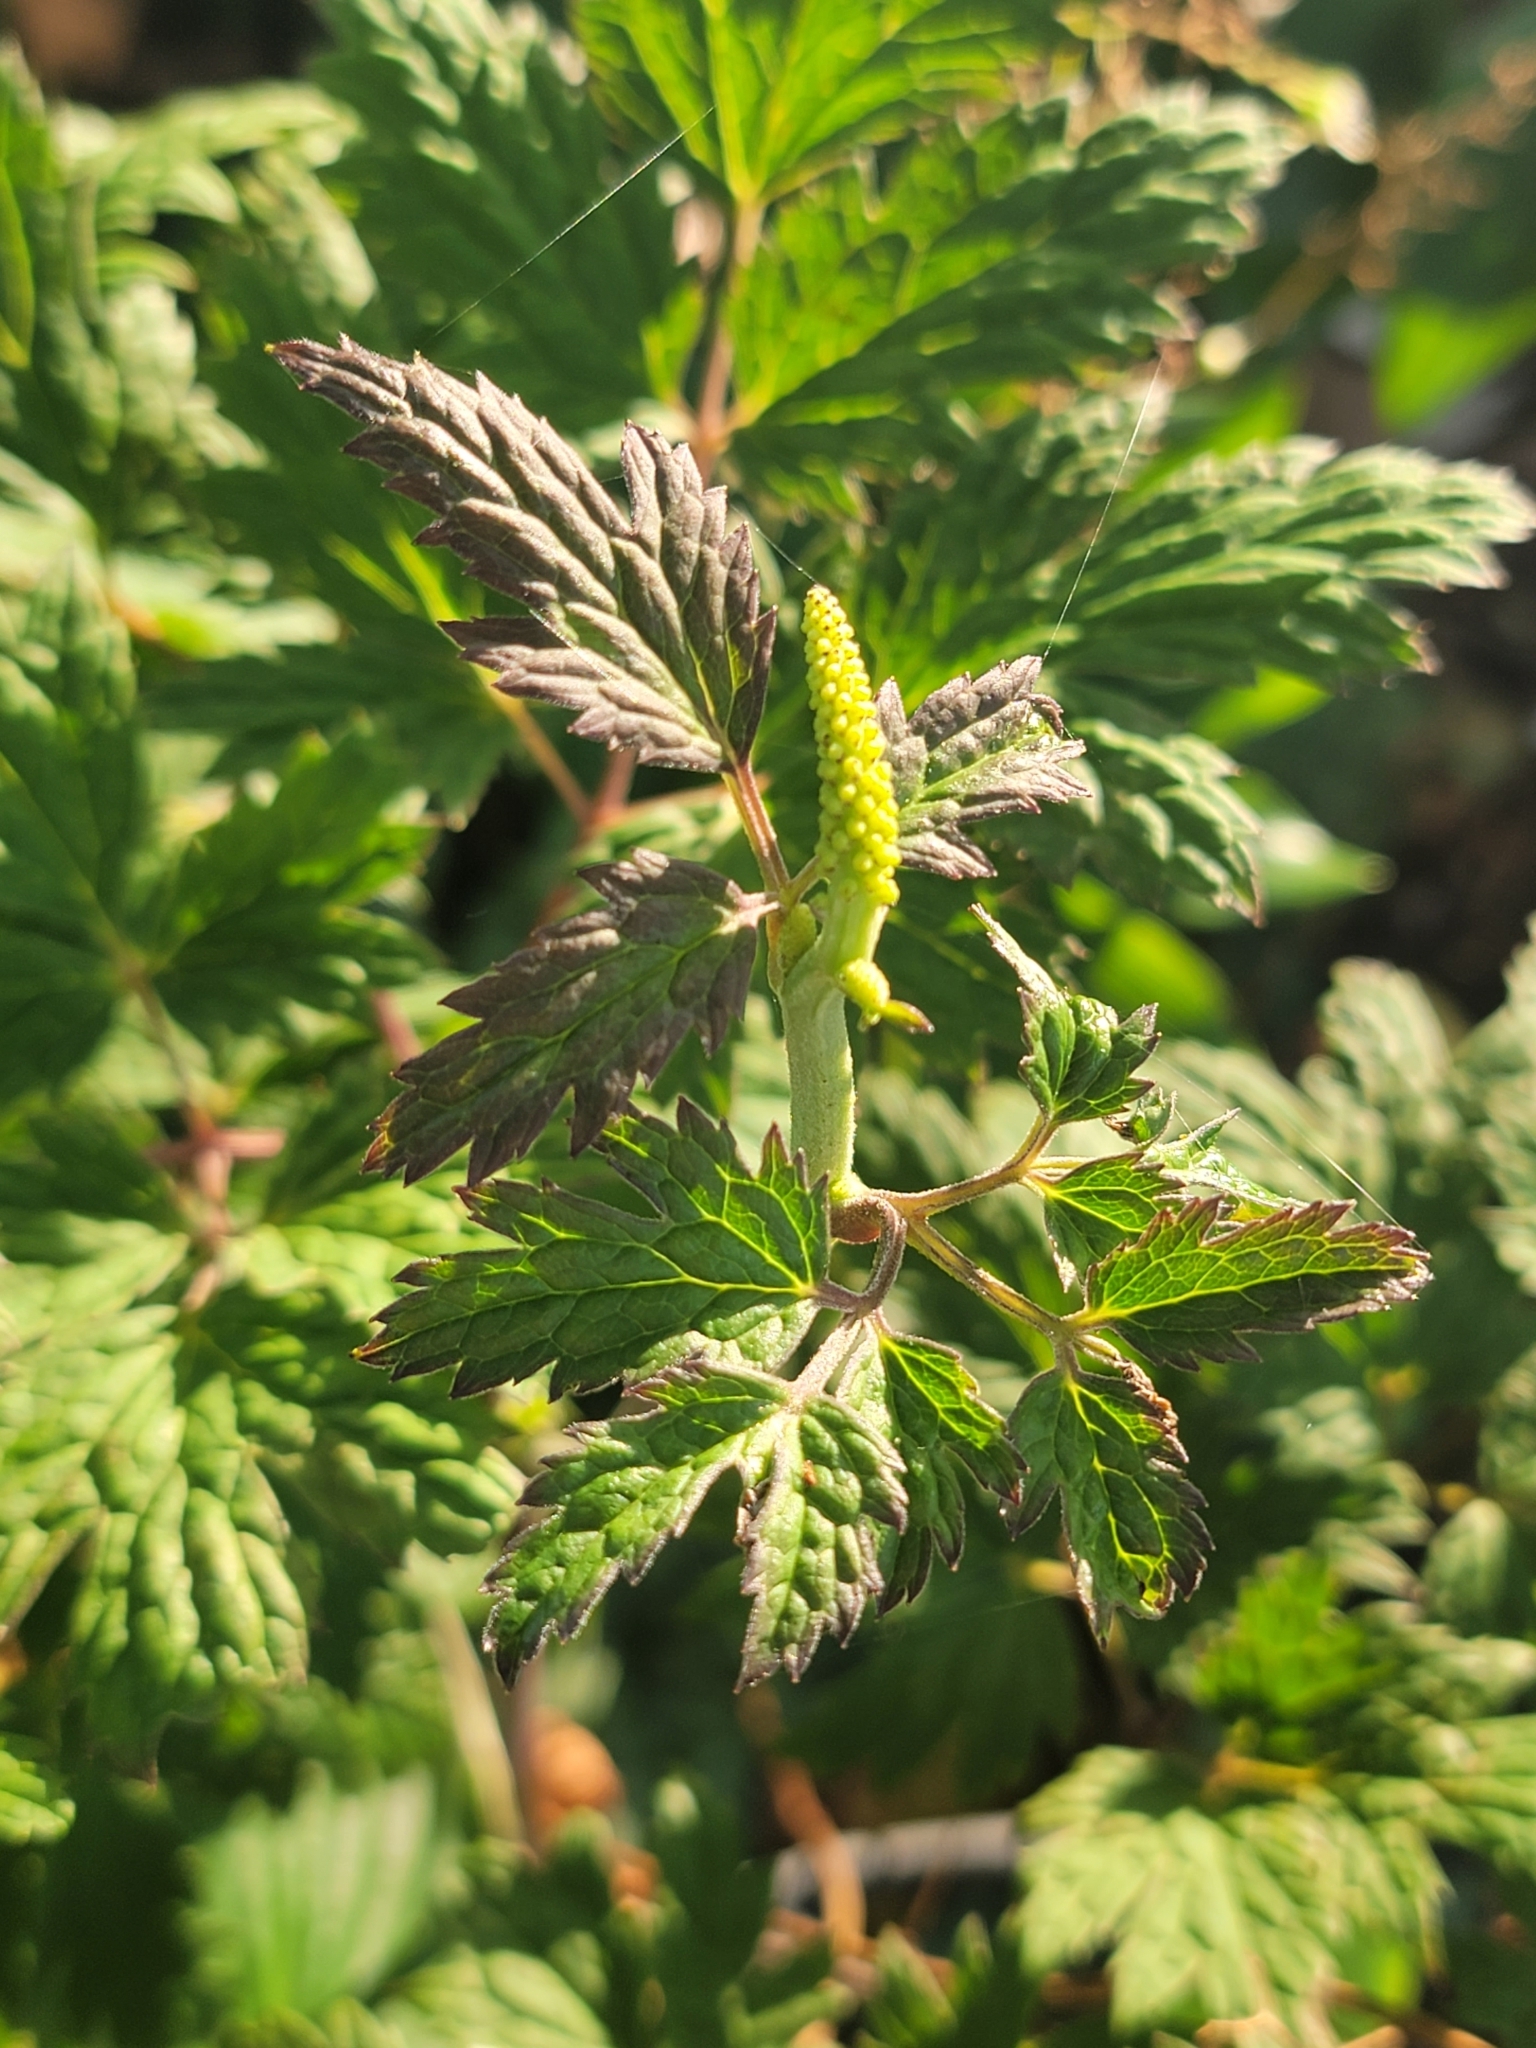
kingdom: Plantae
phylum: Tracheophyta
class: Magnoliopsida
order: Ranunculales
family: Ranunculaceae
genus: Actaea
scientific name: Actaea racemosa
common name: Black cohosh
